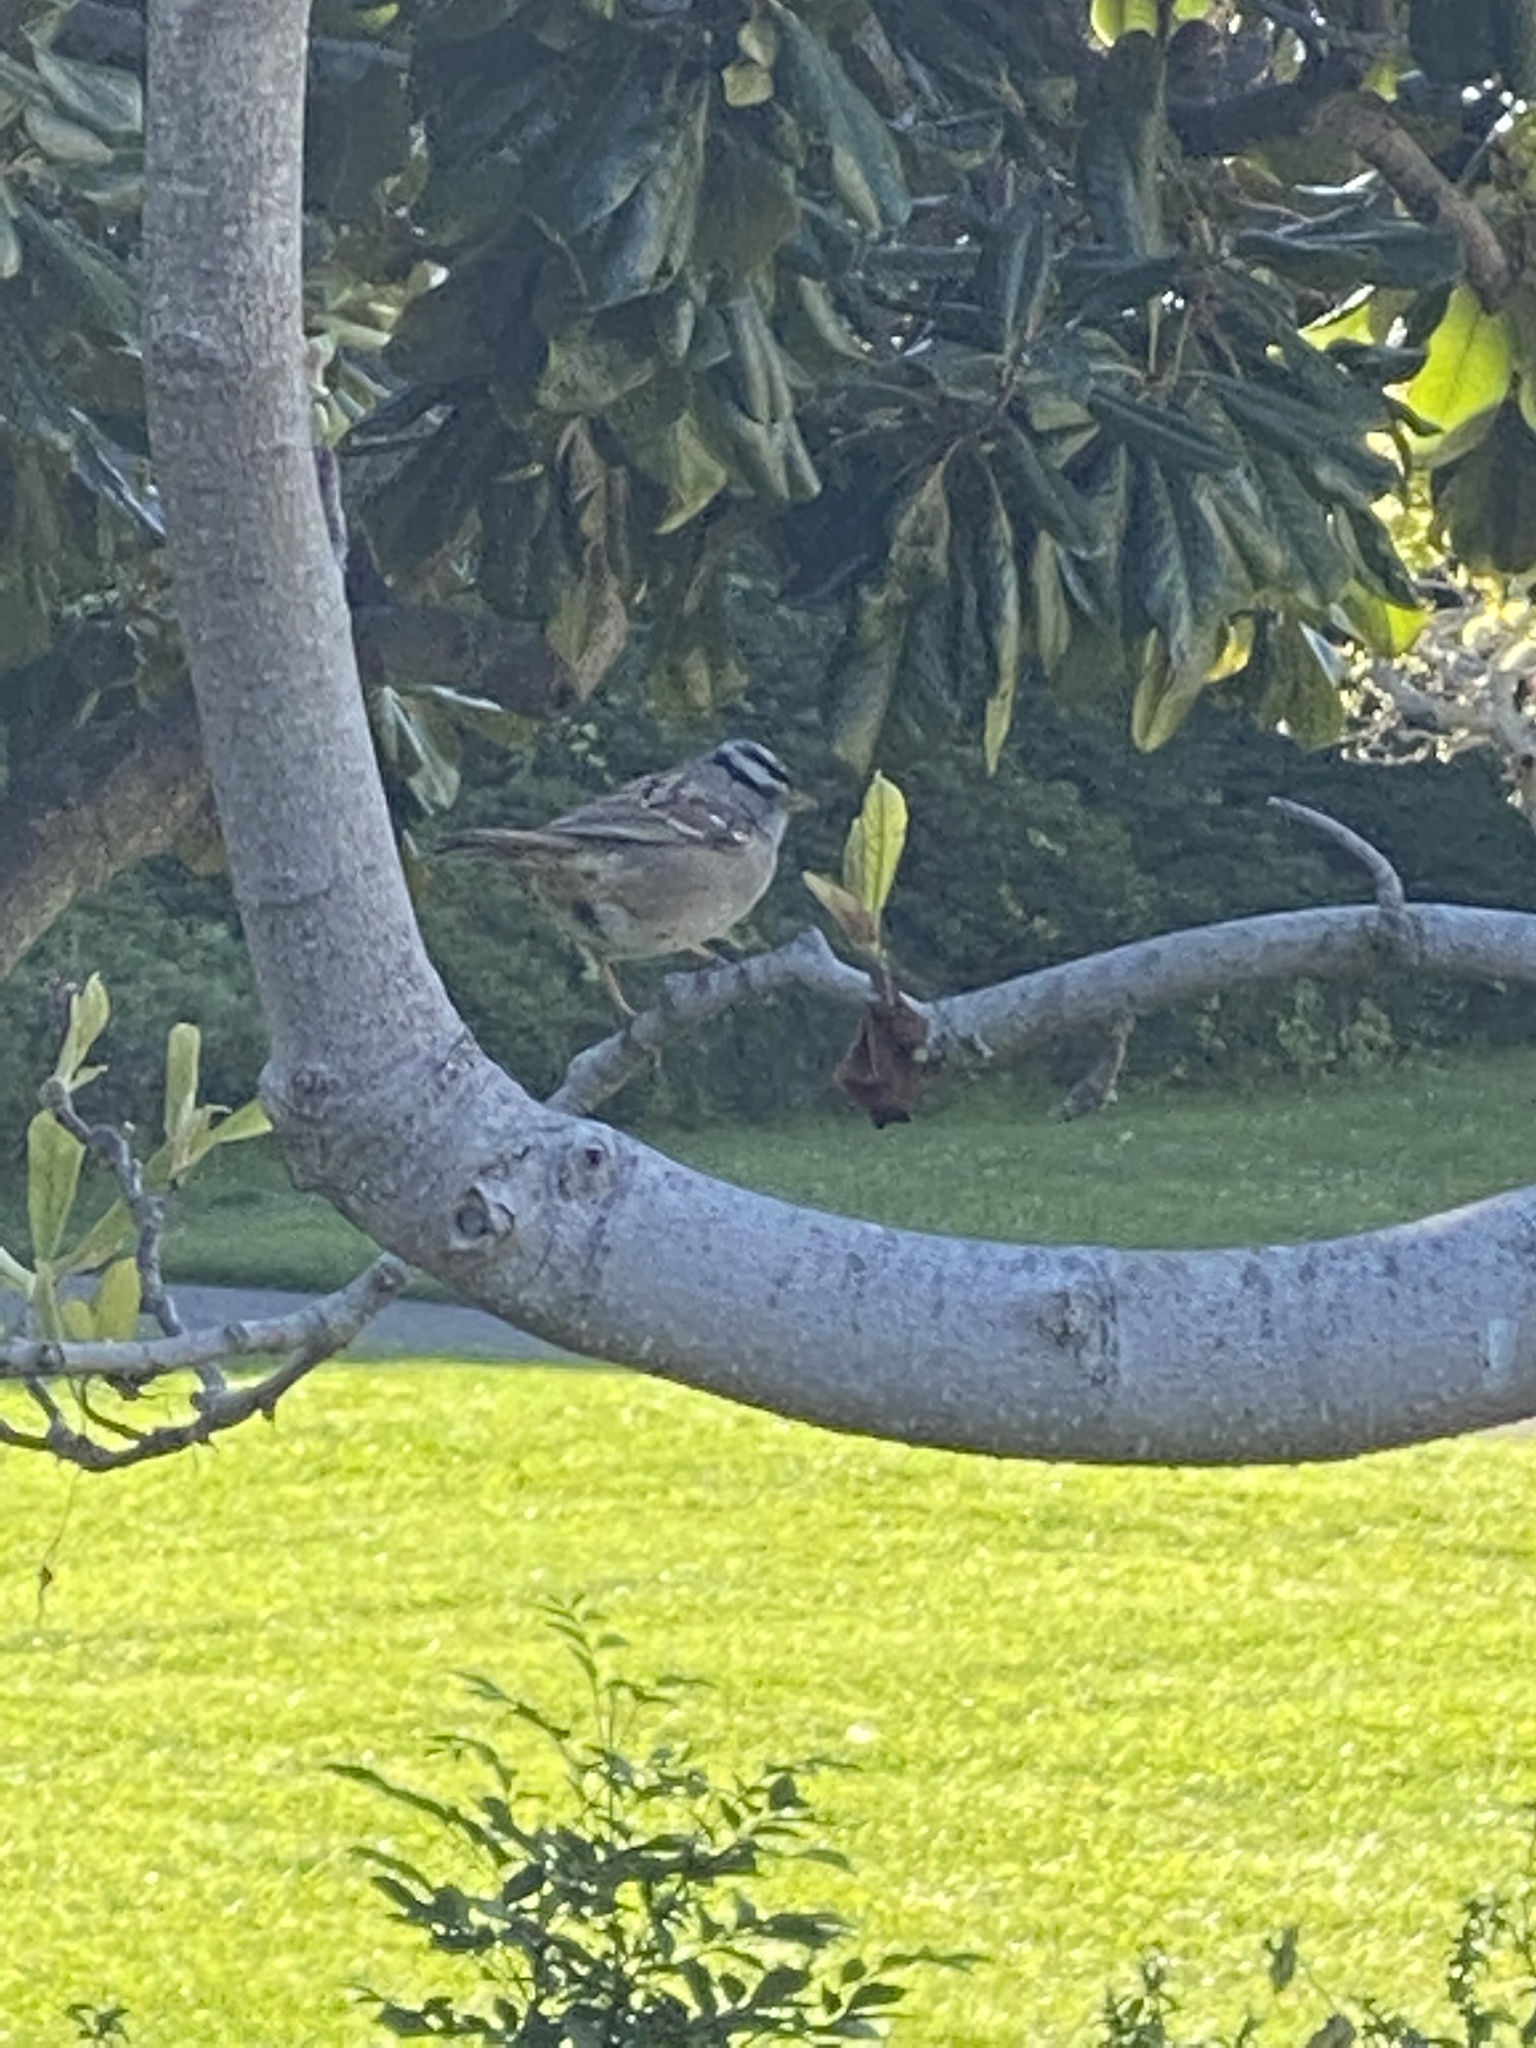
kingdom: Animalia
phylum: Chordata
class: Aves
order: Passeriformes
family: Passerellidae
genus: Zonotrichia
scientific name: Zonotrichia leucophrys
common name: White-crowned sparrow
